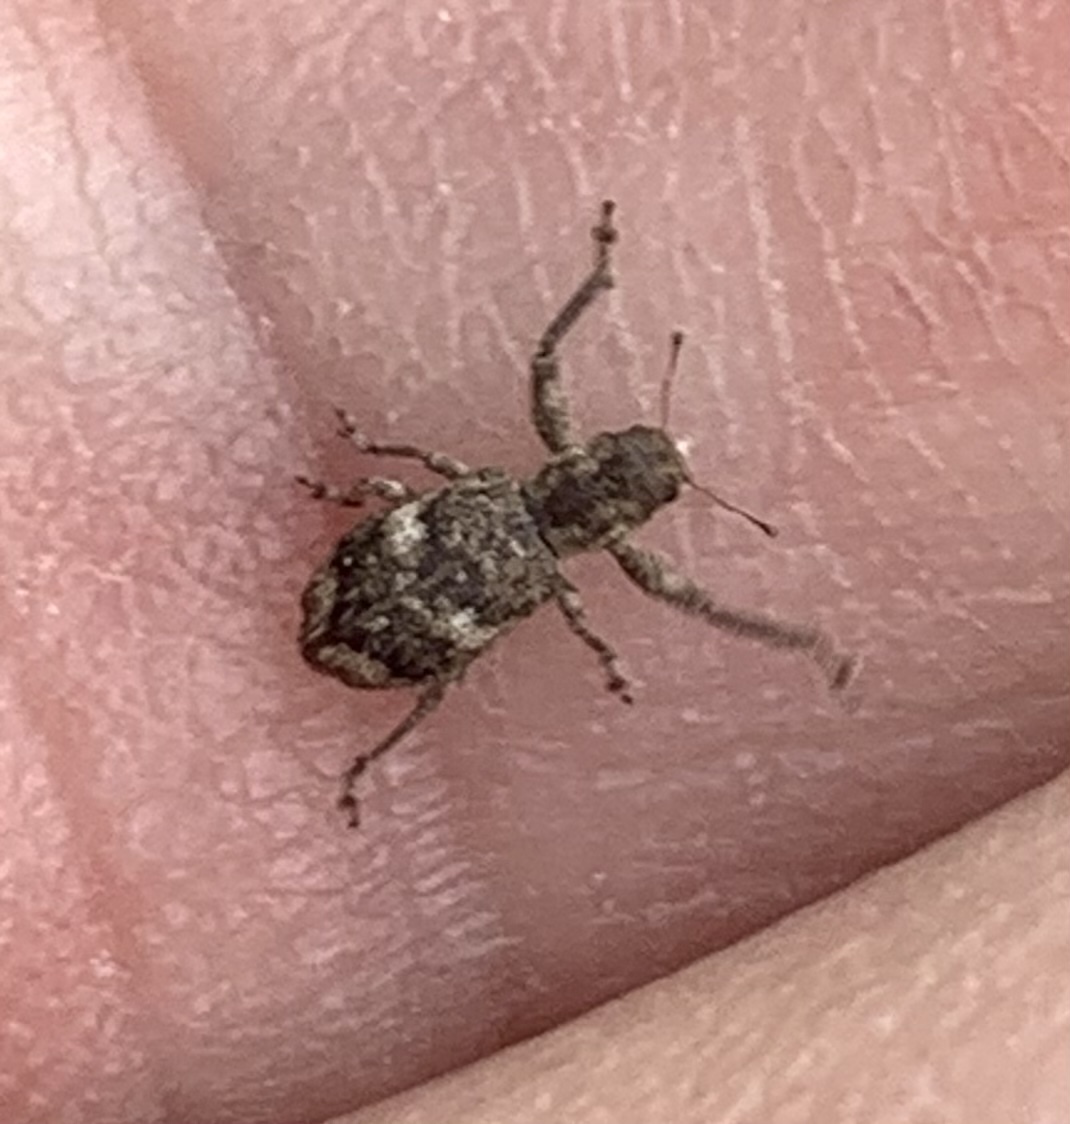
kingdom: Animalia
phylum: Arthropoda
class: Insecta
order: Coleoptera
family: Curculionidae
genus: Pandeleteius
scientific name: Pandeleteius cinereus
